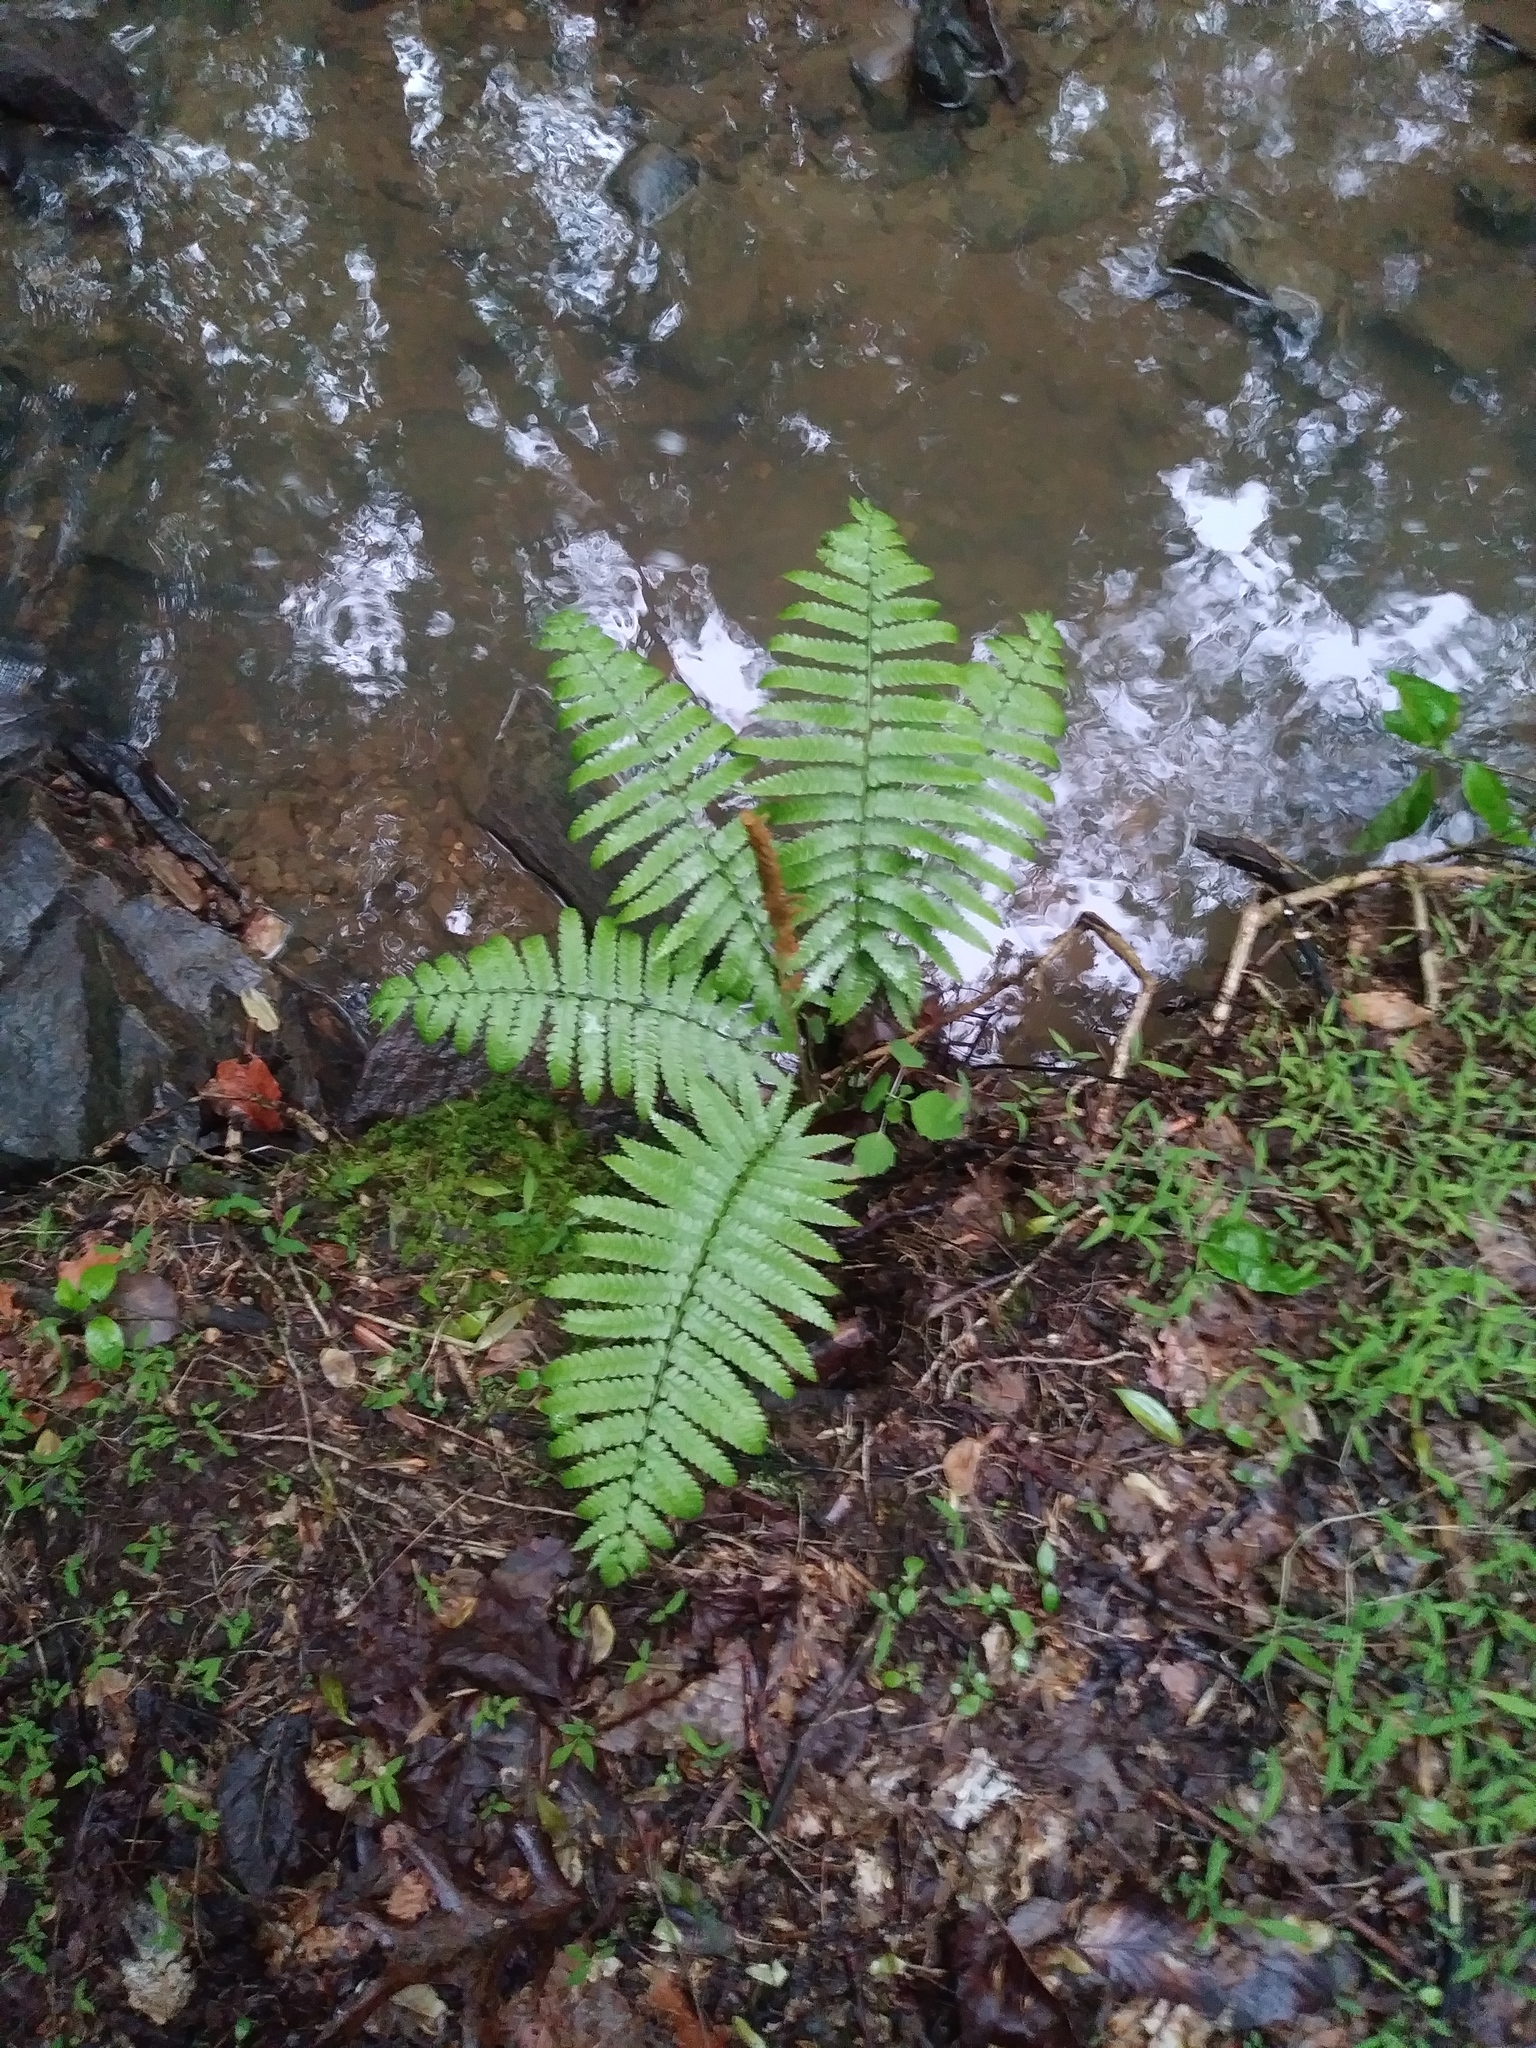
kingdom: Plantae
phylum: Tracheophyta
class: Polypodiopsida
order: Osmundales
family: Osmundaceae
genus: Osmundastrum
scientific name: Osmundastrum cinnamomeum
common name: Cinnamon fern
